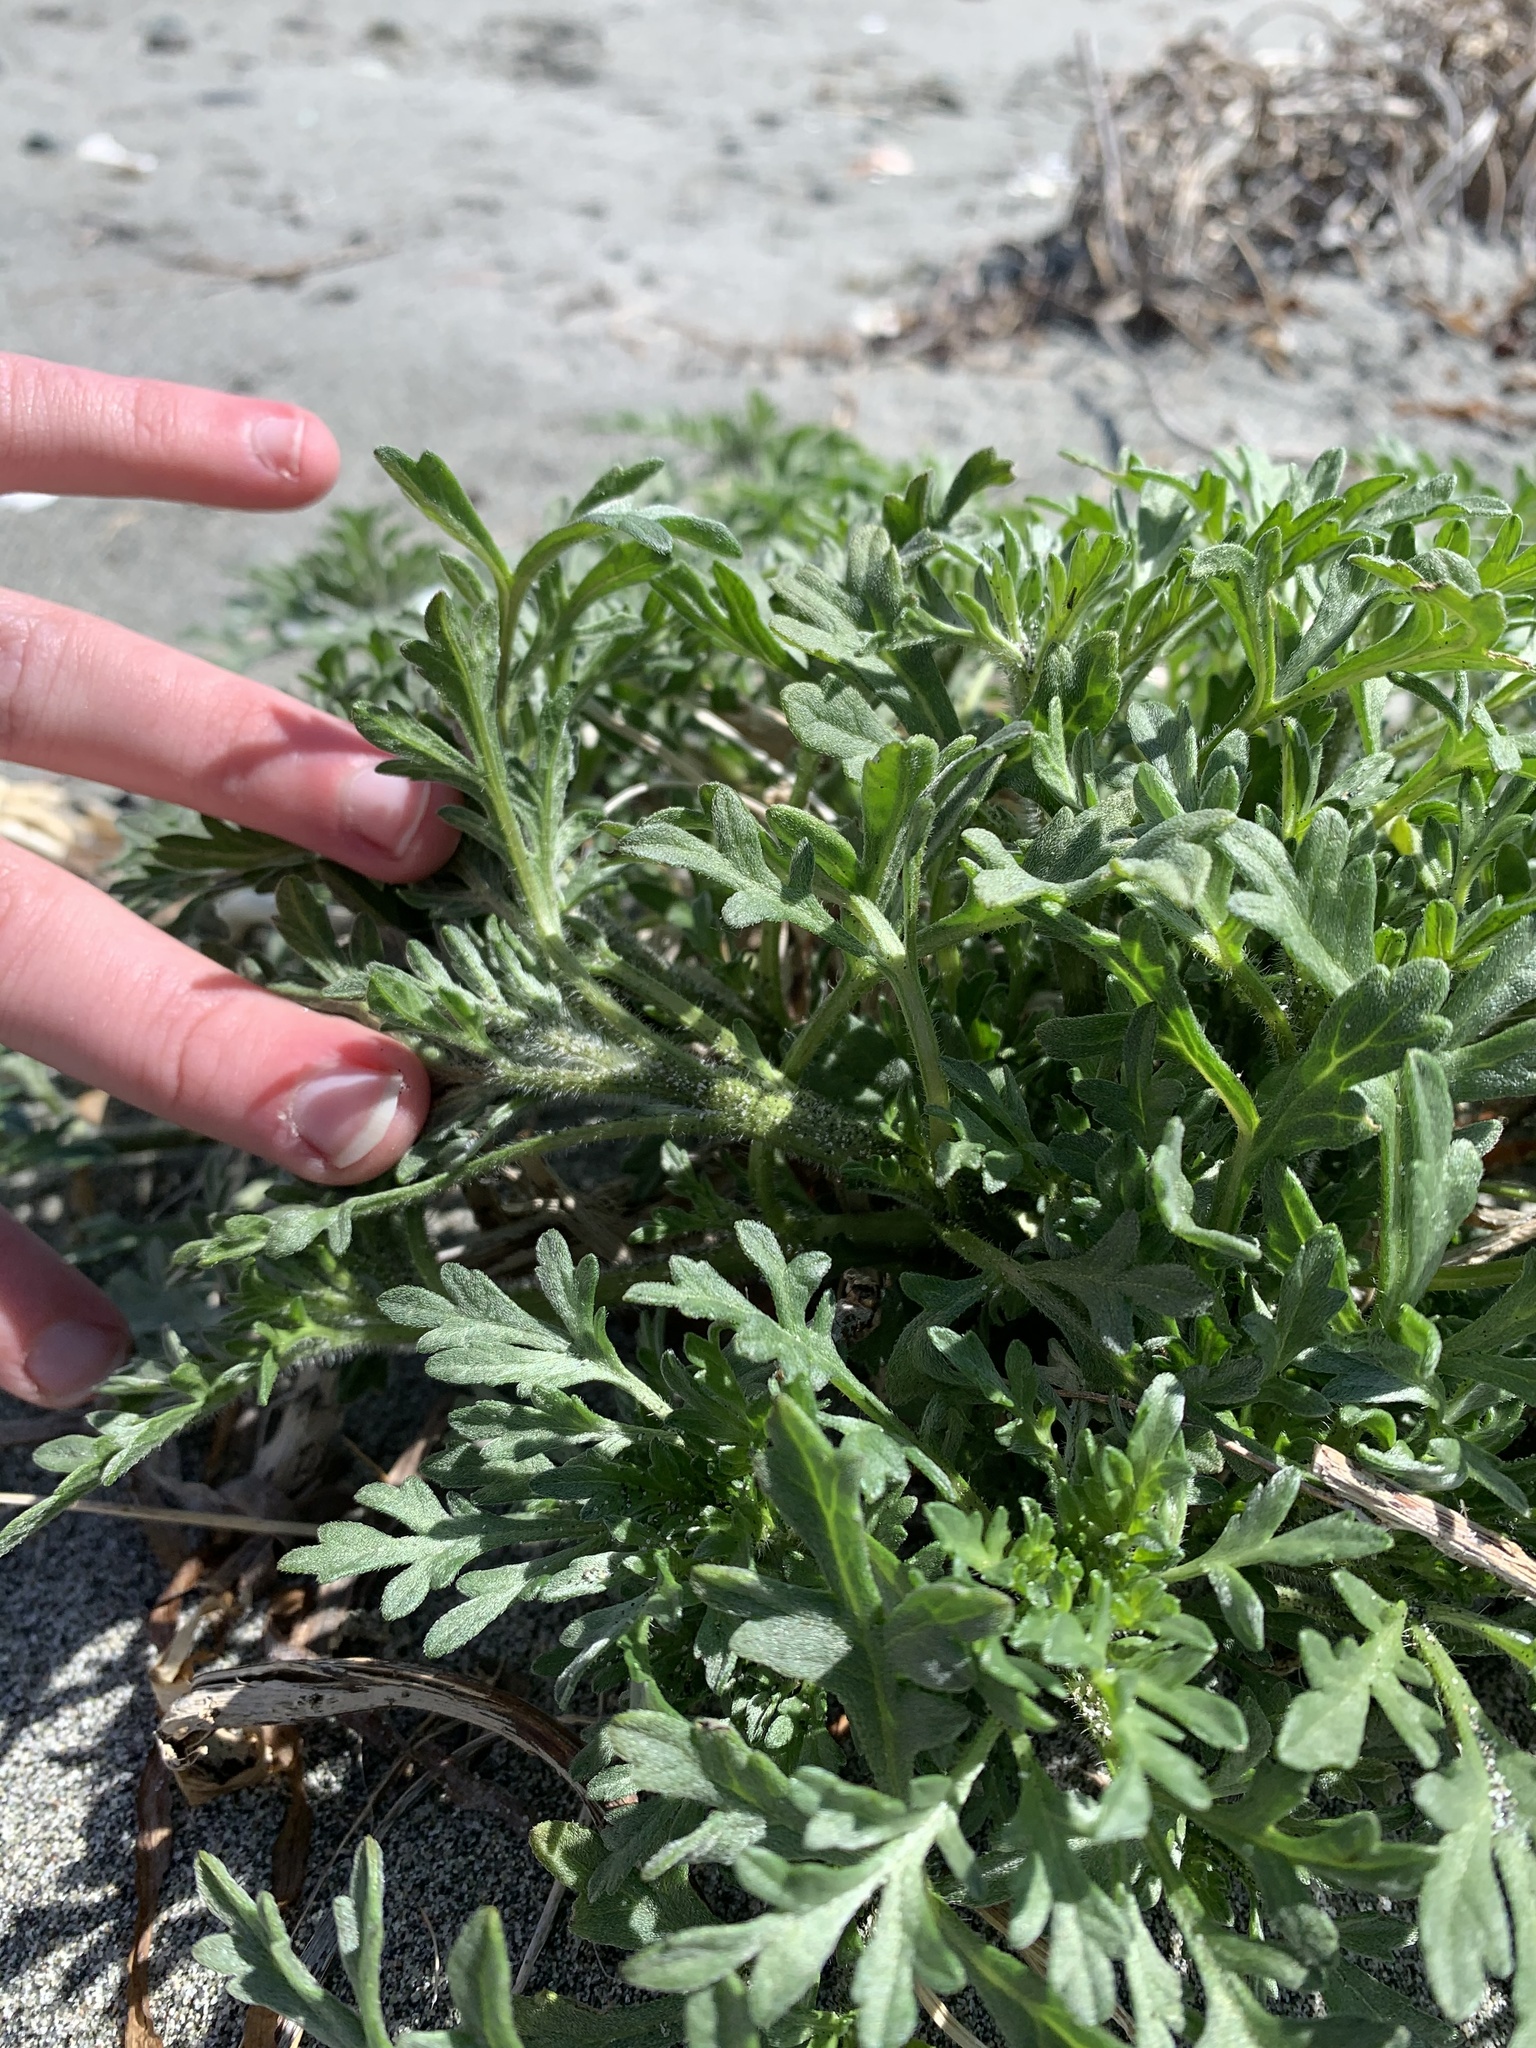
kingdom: Plantae
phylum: Tracheophyta
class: Magnoliopsida
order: Asterales
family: Asteraceae
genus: Ambrosia
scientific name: Ambrosia chamissonis
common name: Beachbur
